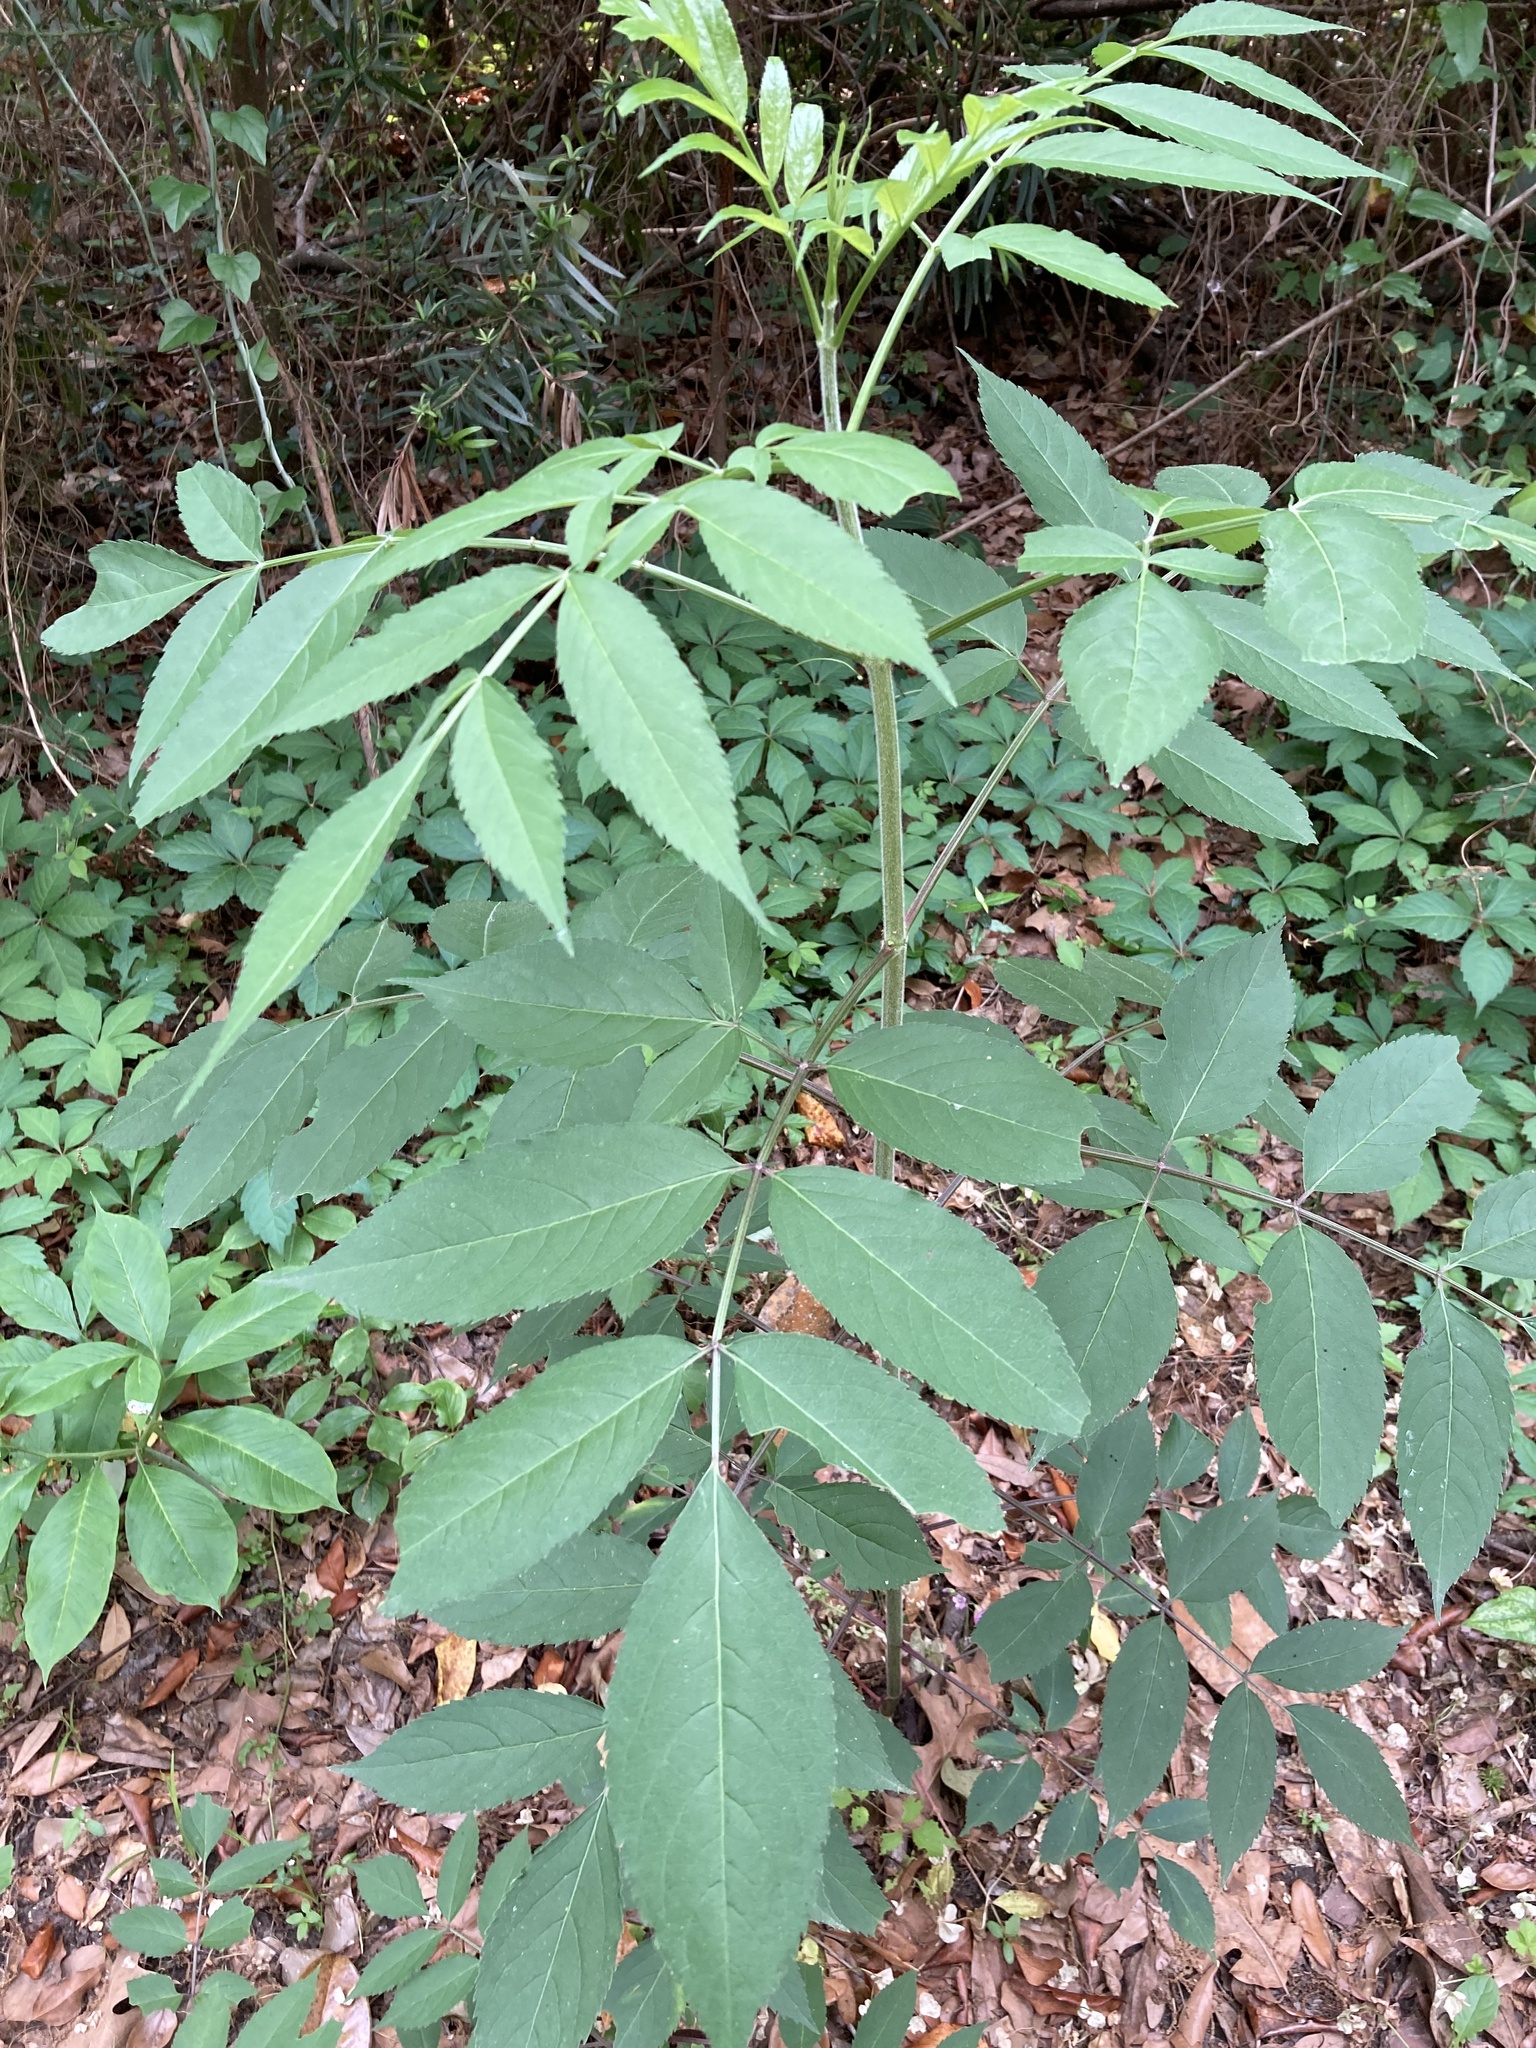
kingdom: Plantae
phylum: Tracheophyta
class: Magnoliopsida
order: Dipsacales
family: Viburnaceae
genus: Sambucus
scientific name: Sambucus canadensis
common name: American elder
